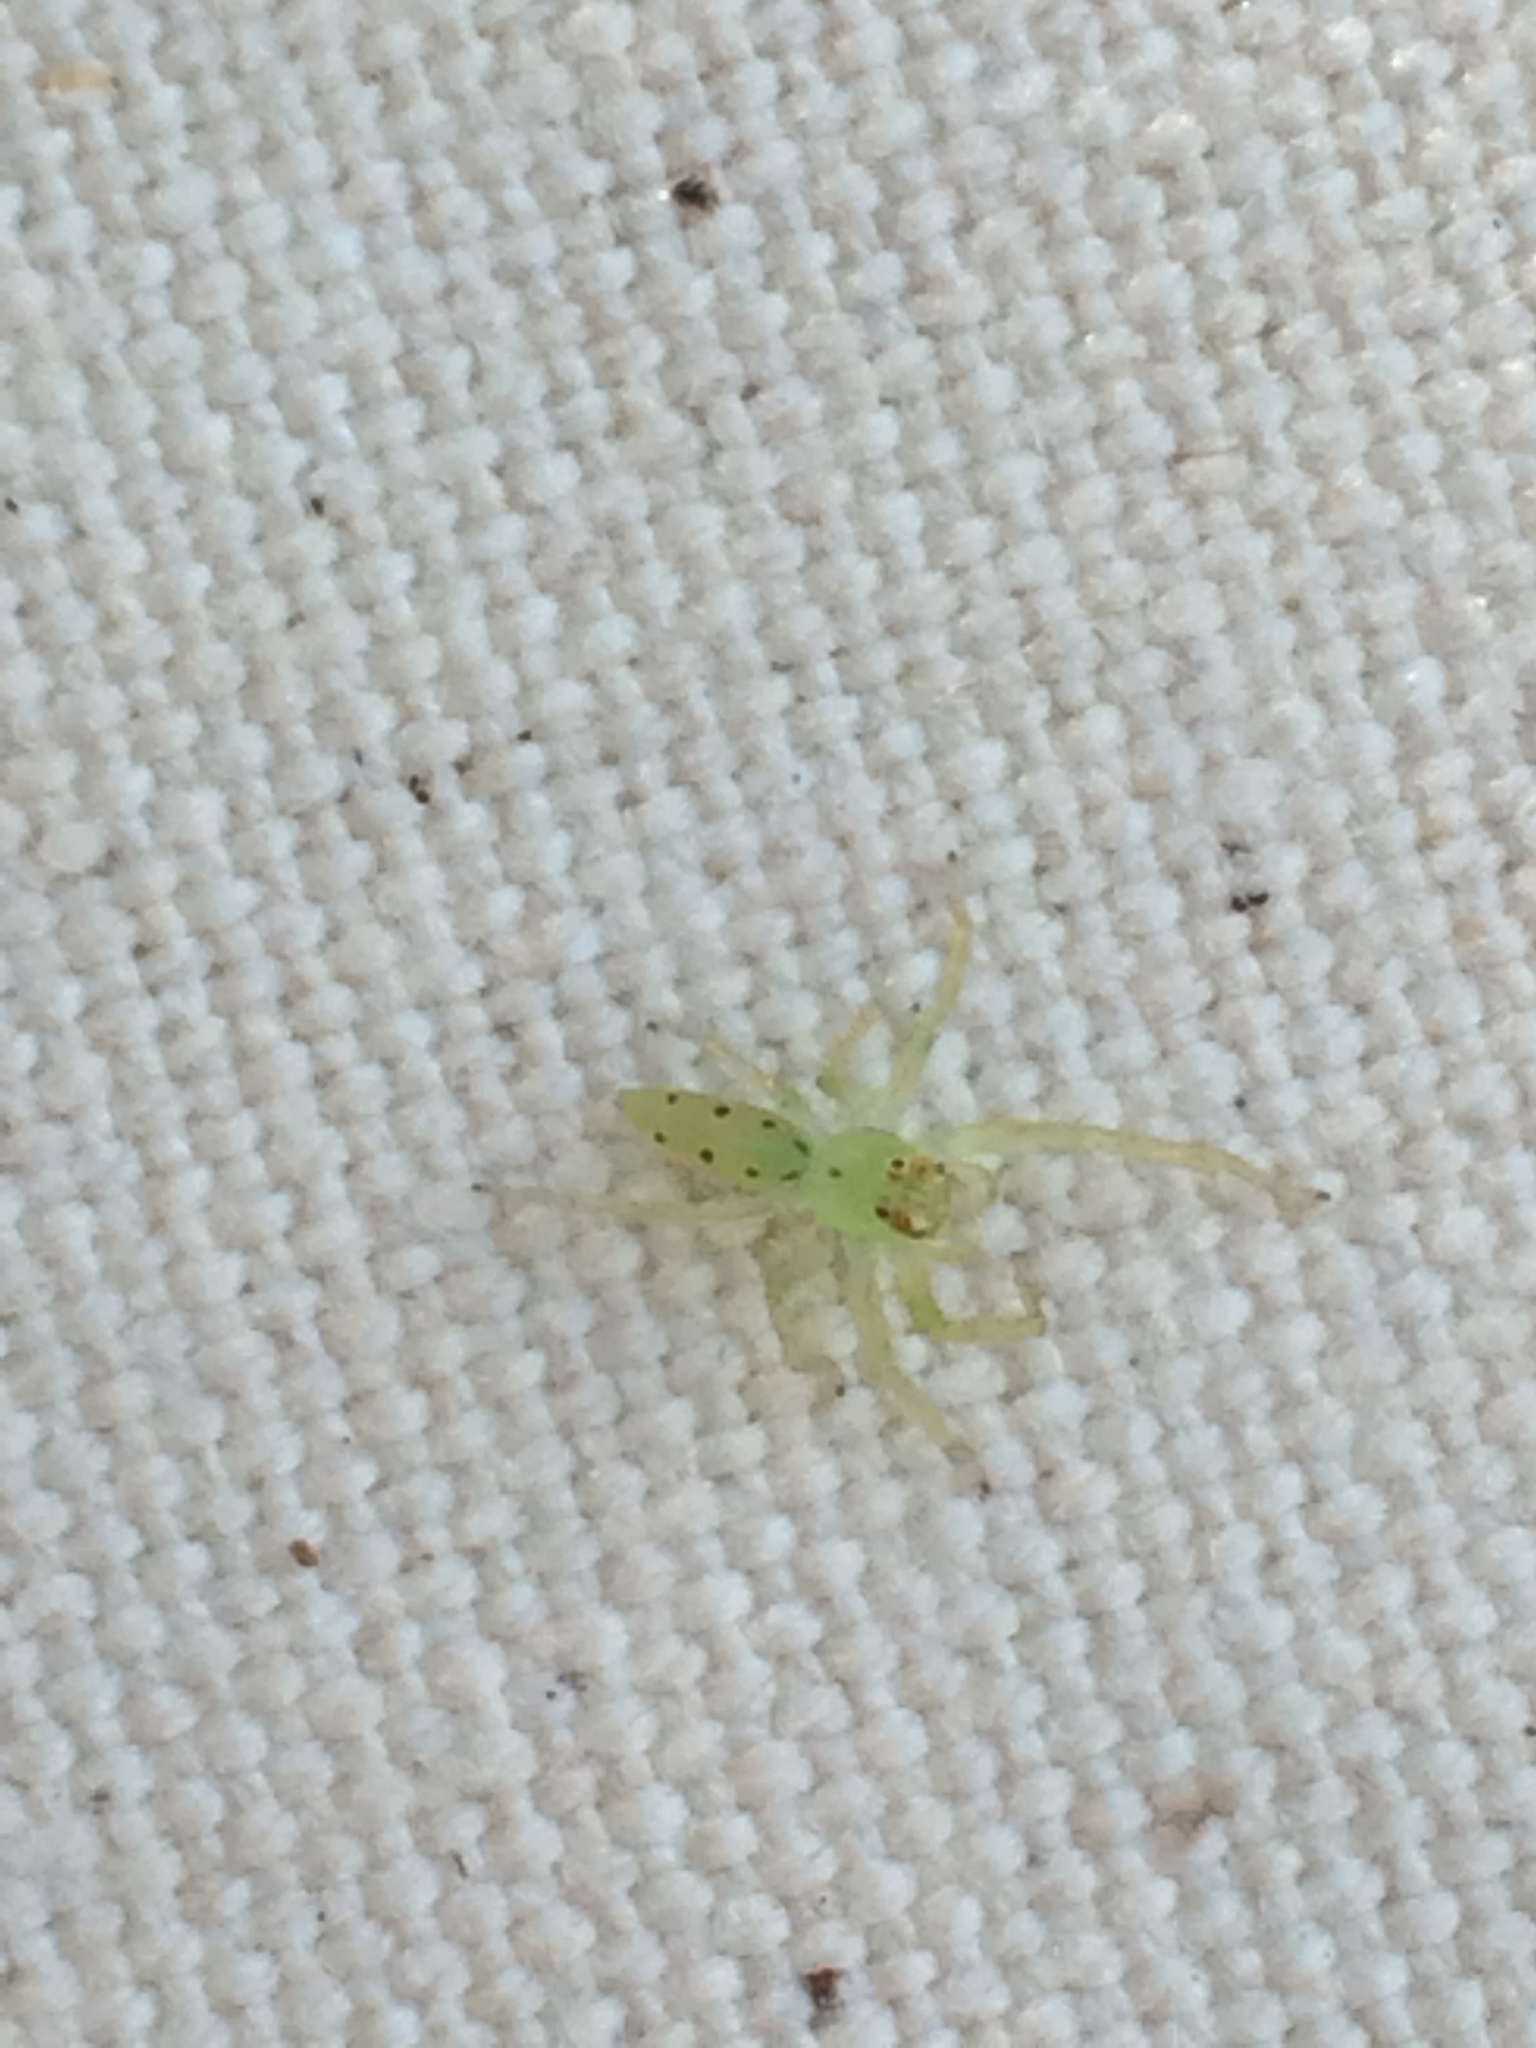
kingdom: Animalia
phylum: Arthropoda
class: Arachnida
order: Araneae
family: Salticidae
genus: Lyssomanes
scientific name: Lyssomanes viridis
